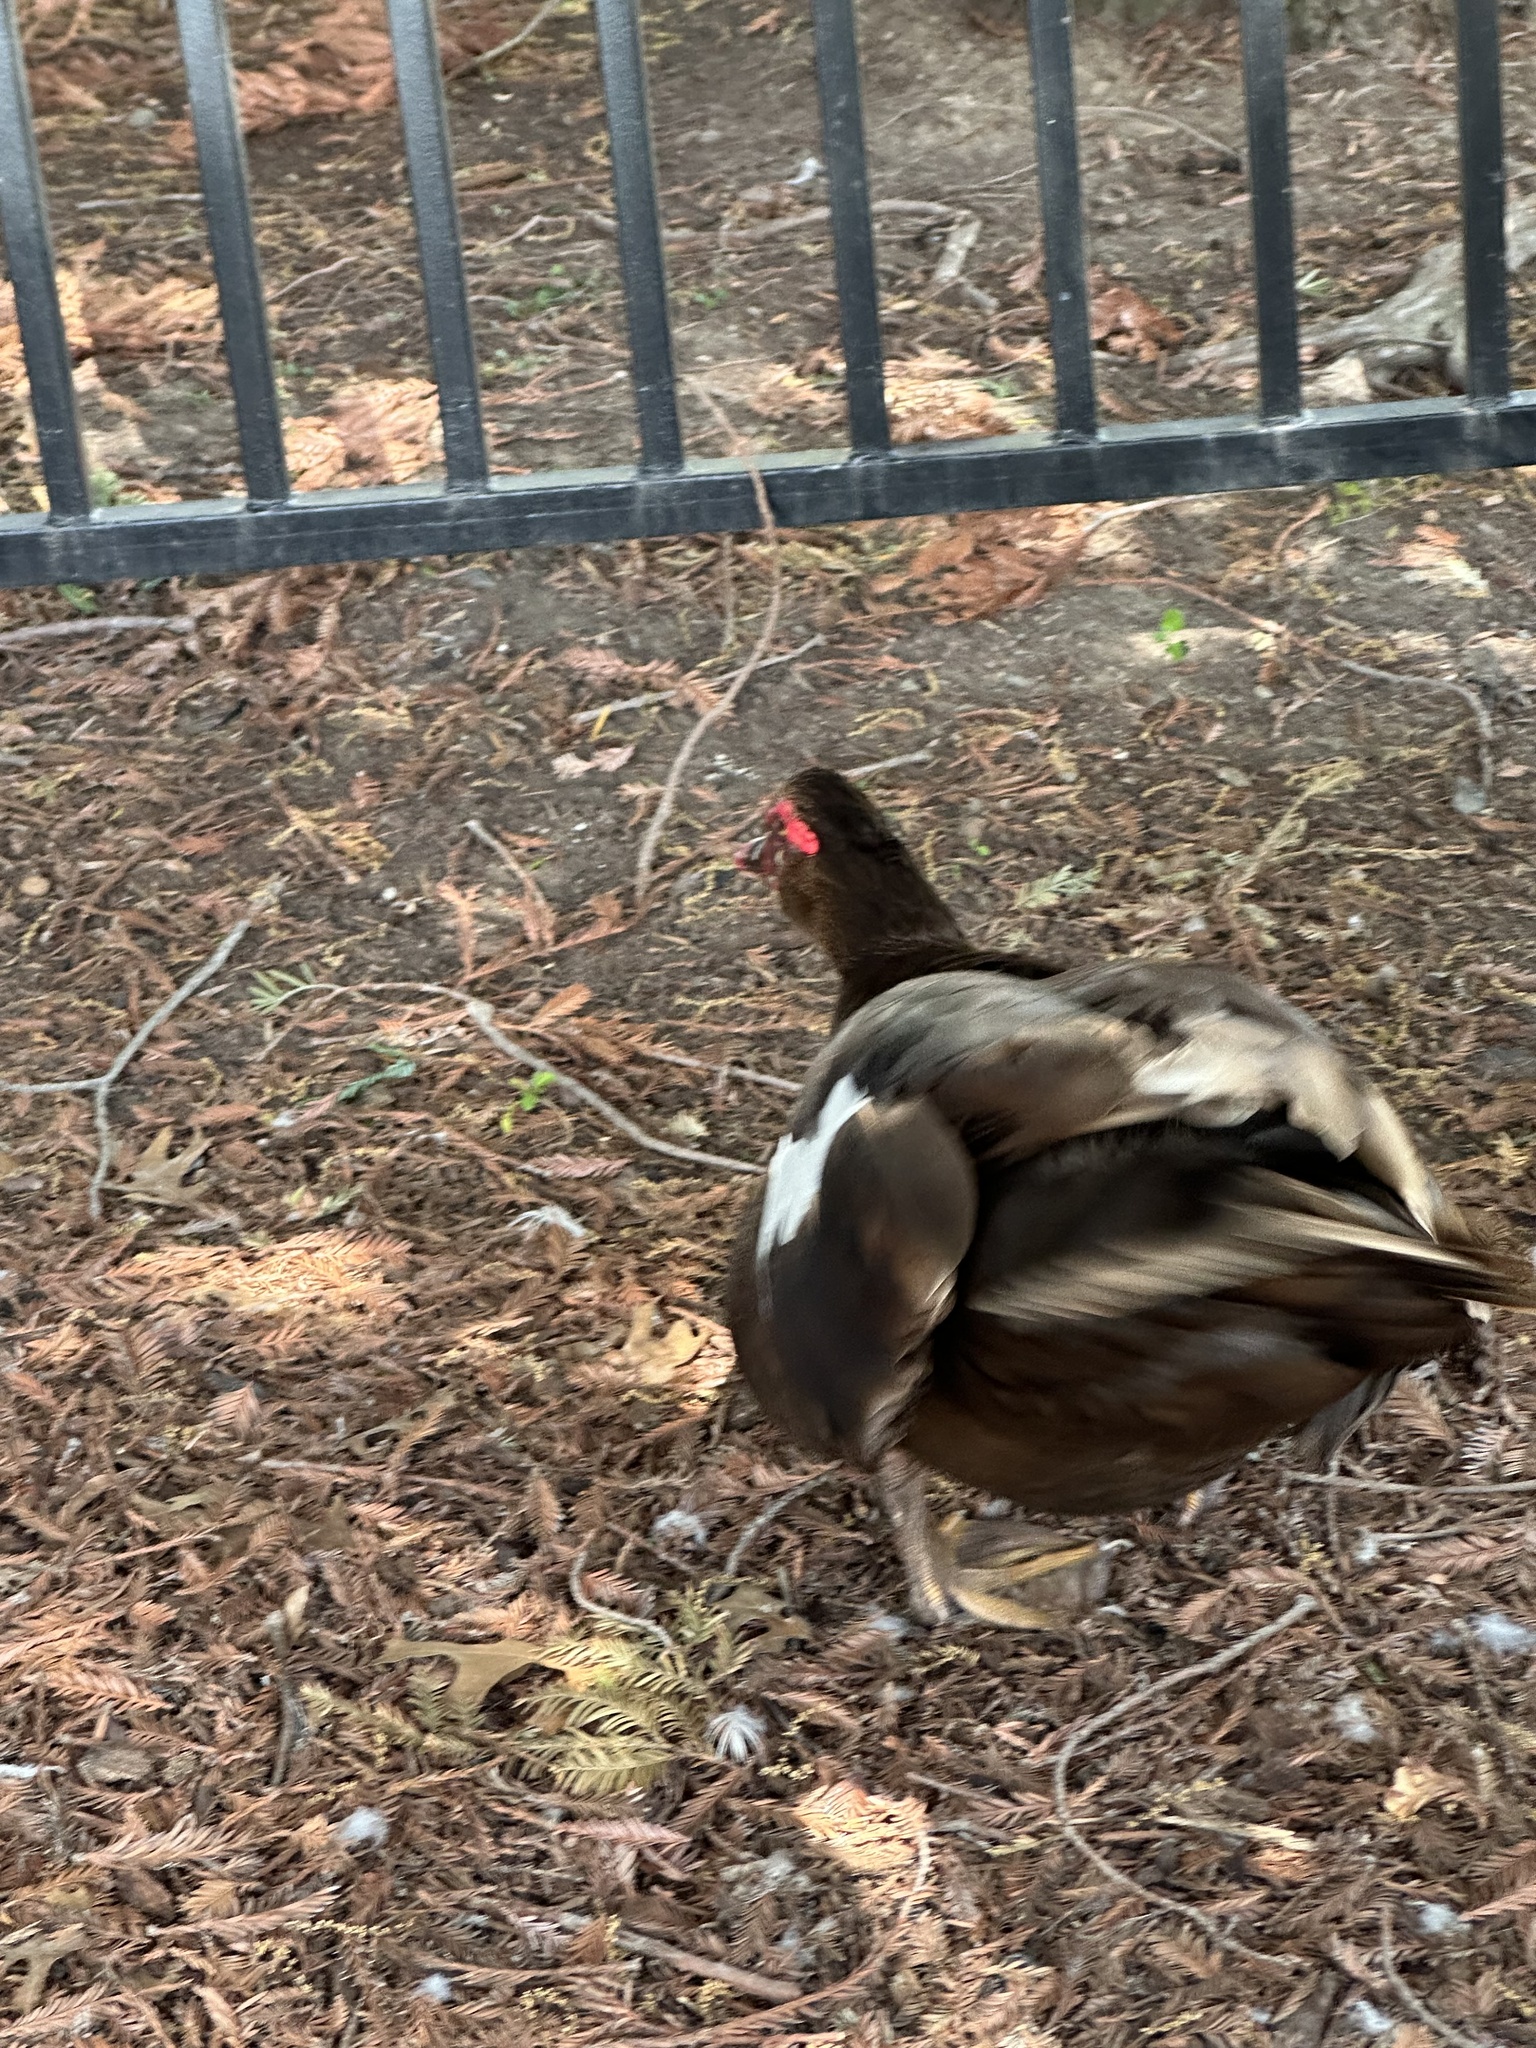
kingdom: Animalia
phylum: Chordata
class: Aves
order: Anseriformes
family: Anatidae
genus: Cairina
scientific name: Cairina moschata
